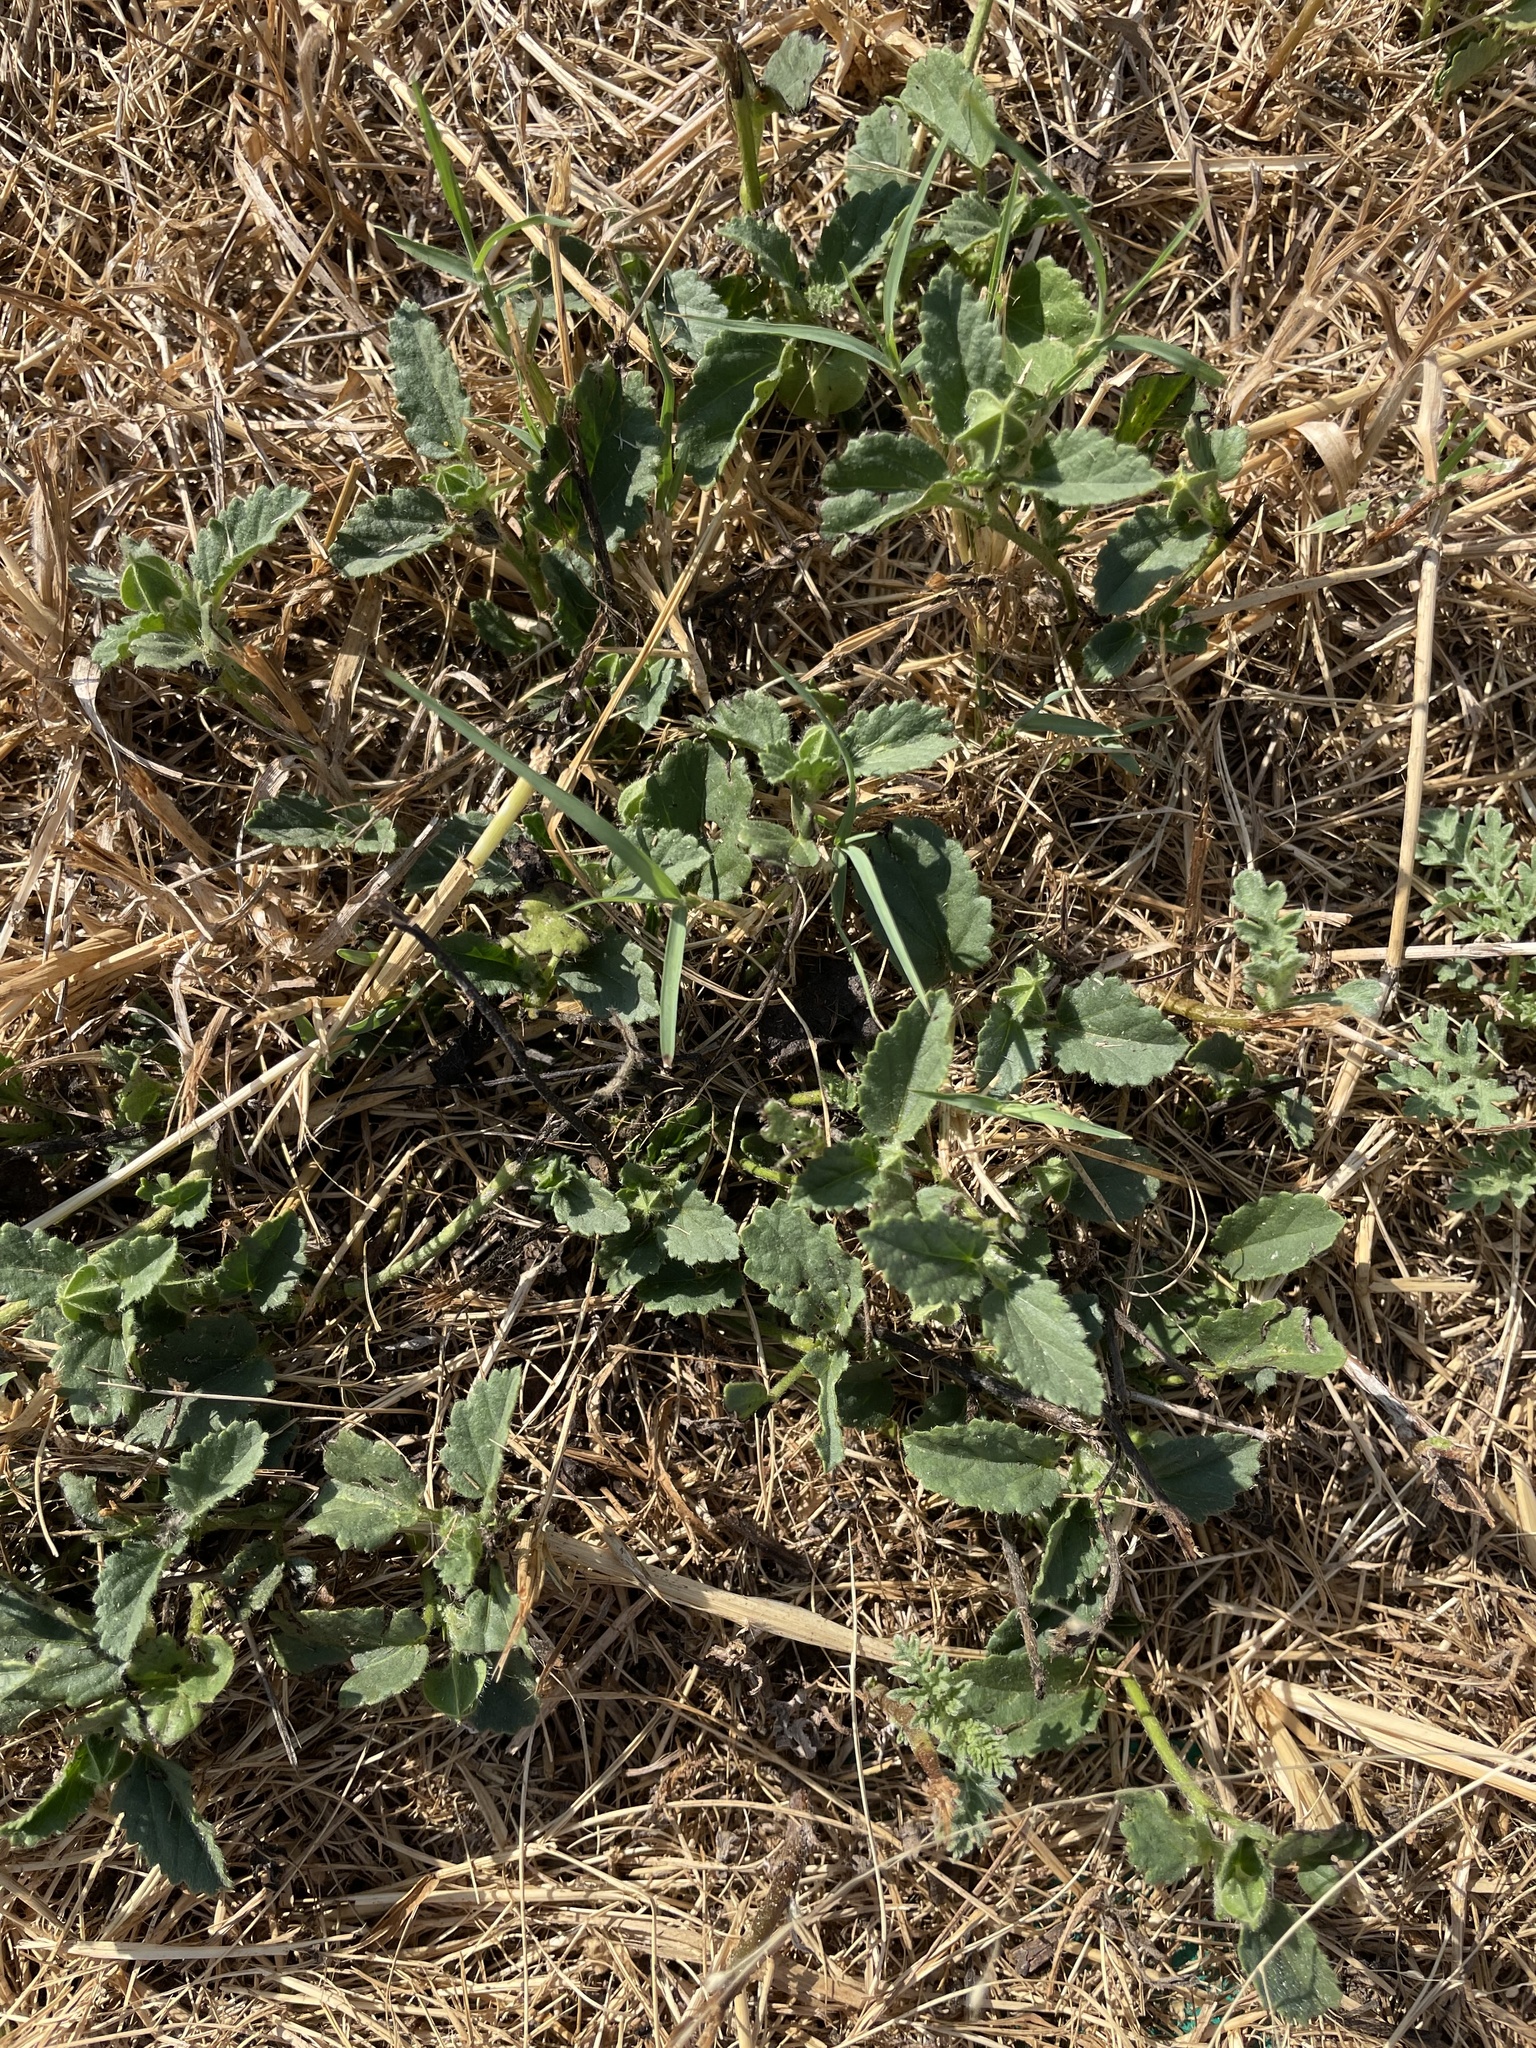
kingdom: Plantae
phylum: Tracheophyta
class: Magnoliopsida
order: Malvales
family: Malvaceae
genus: Rhynchosida
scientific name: Rhynchosida physocalyx
